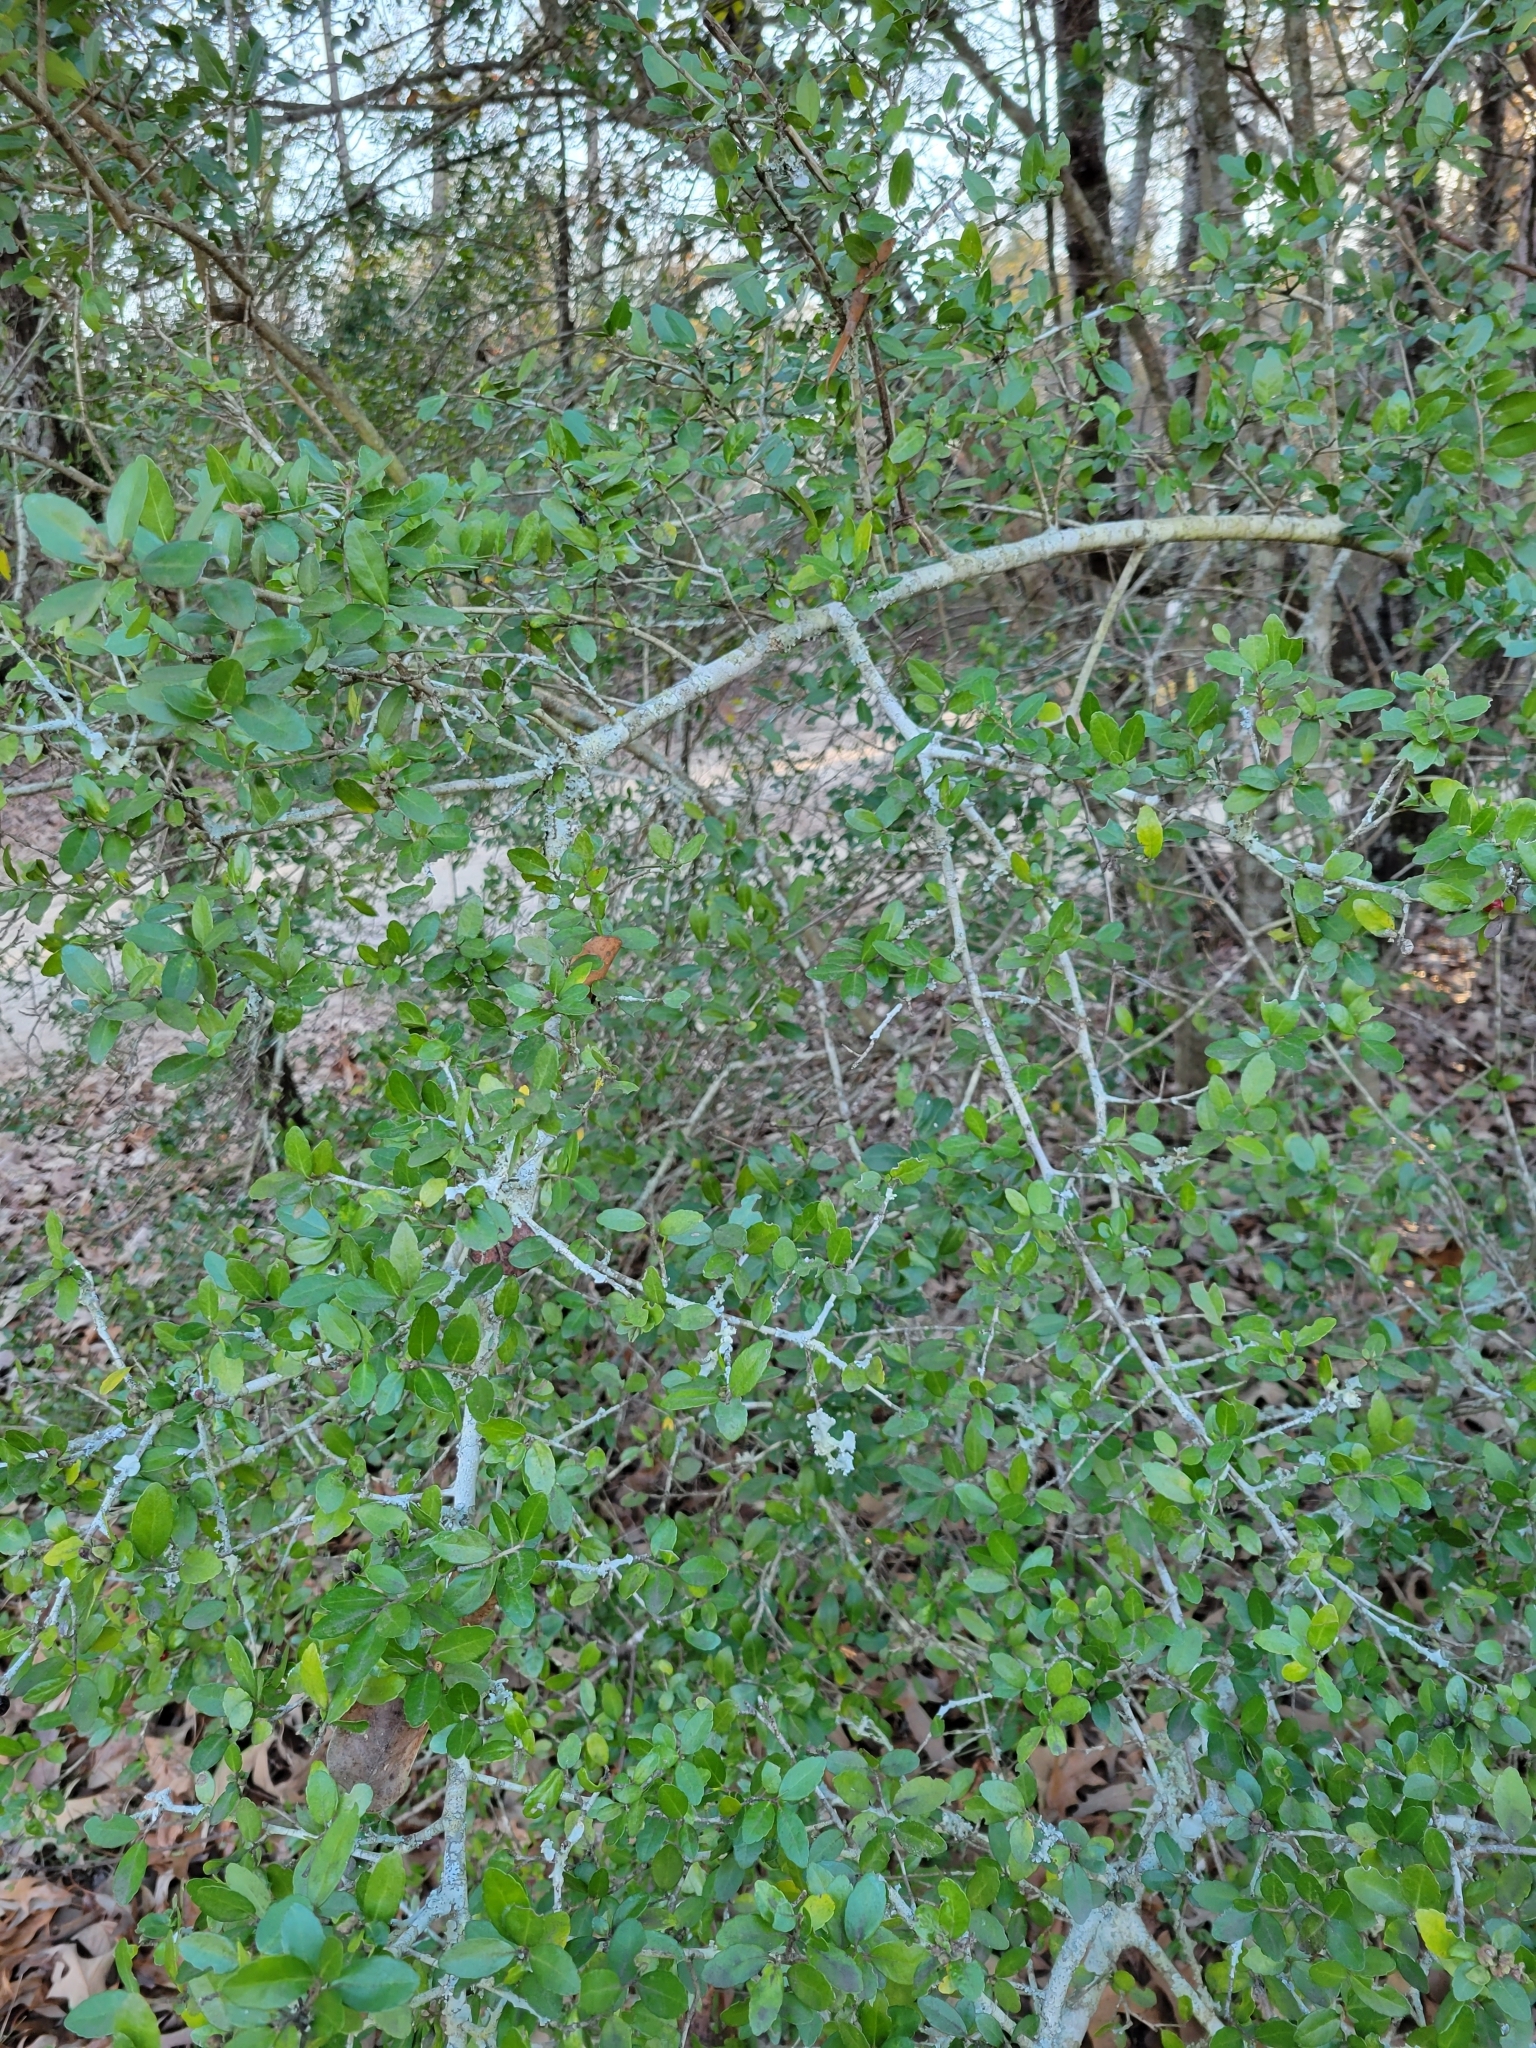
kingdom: Plantae
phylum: Tracheophyta
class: Magnoliopsida
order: Aquifoliales
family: Aquifoliaceae
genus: Ilex
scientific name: Ilex vomitoria
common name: Yaupon holly
